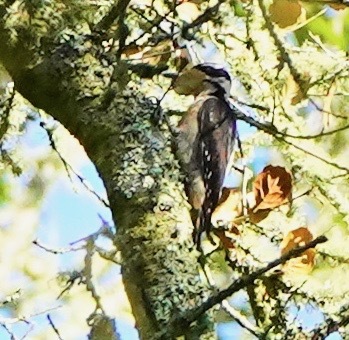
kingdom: Animalia
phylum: Chordata
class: Aves
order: Piciformes
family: Picidae
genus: Leuconotopicus
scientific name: Leuconotopicus villosus
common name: Hairy woodpecker
